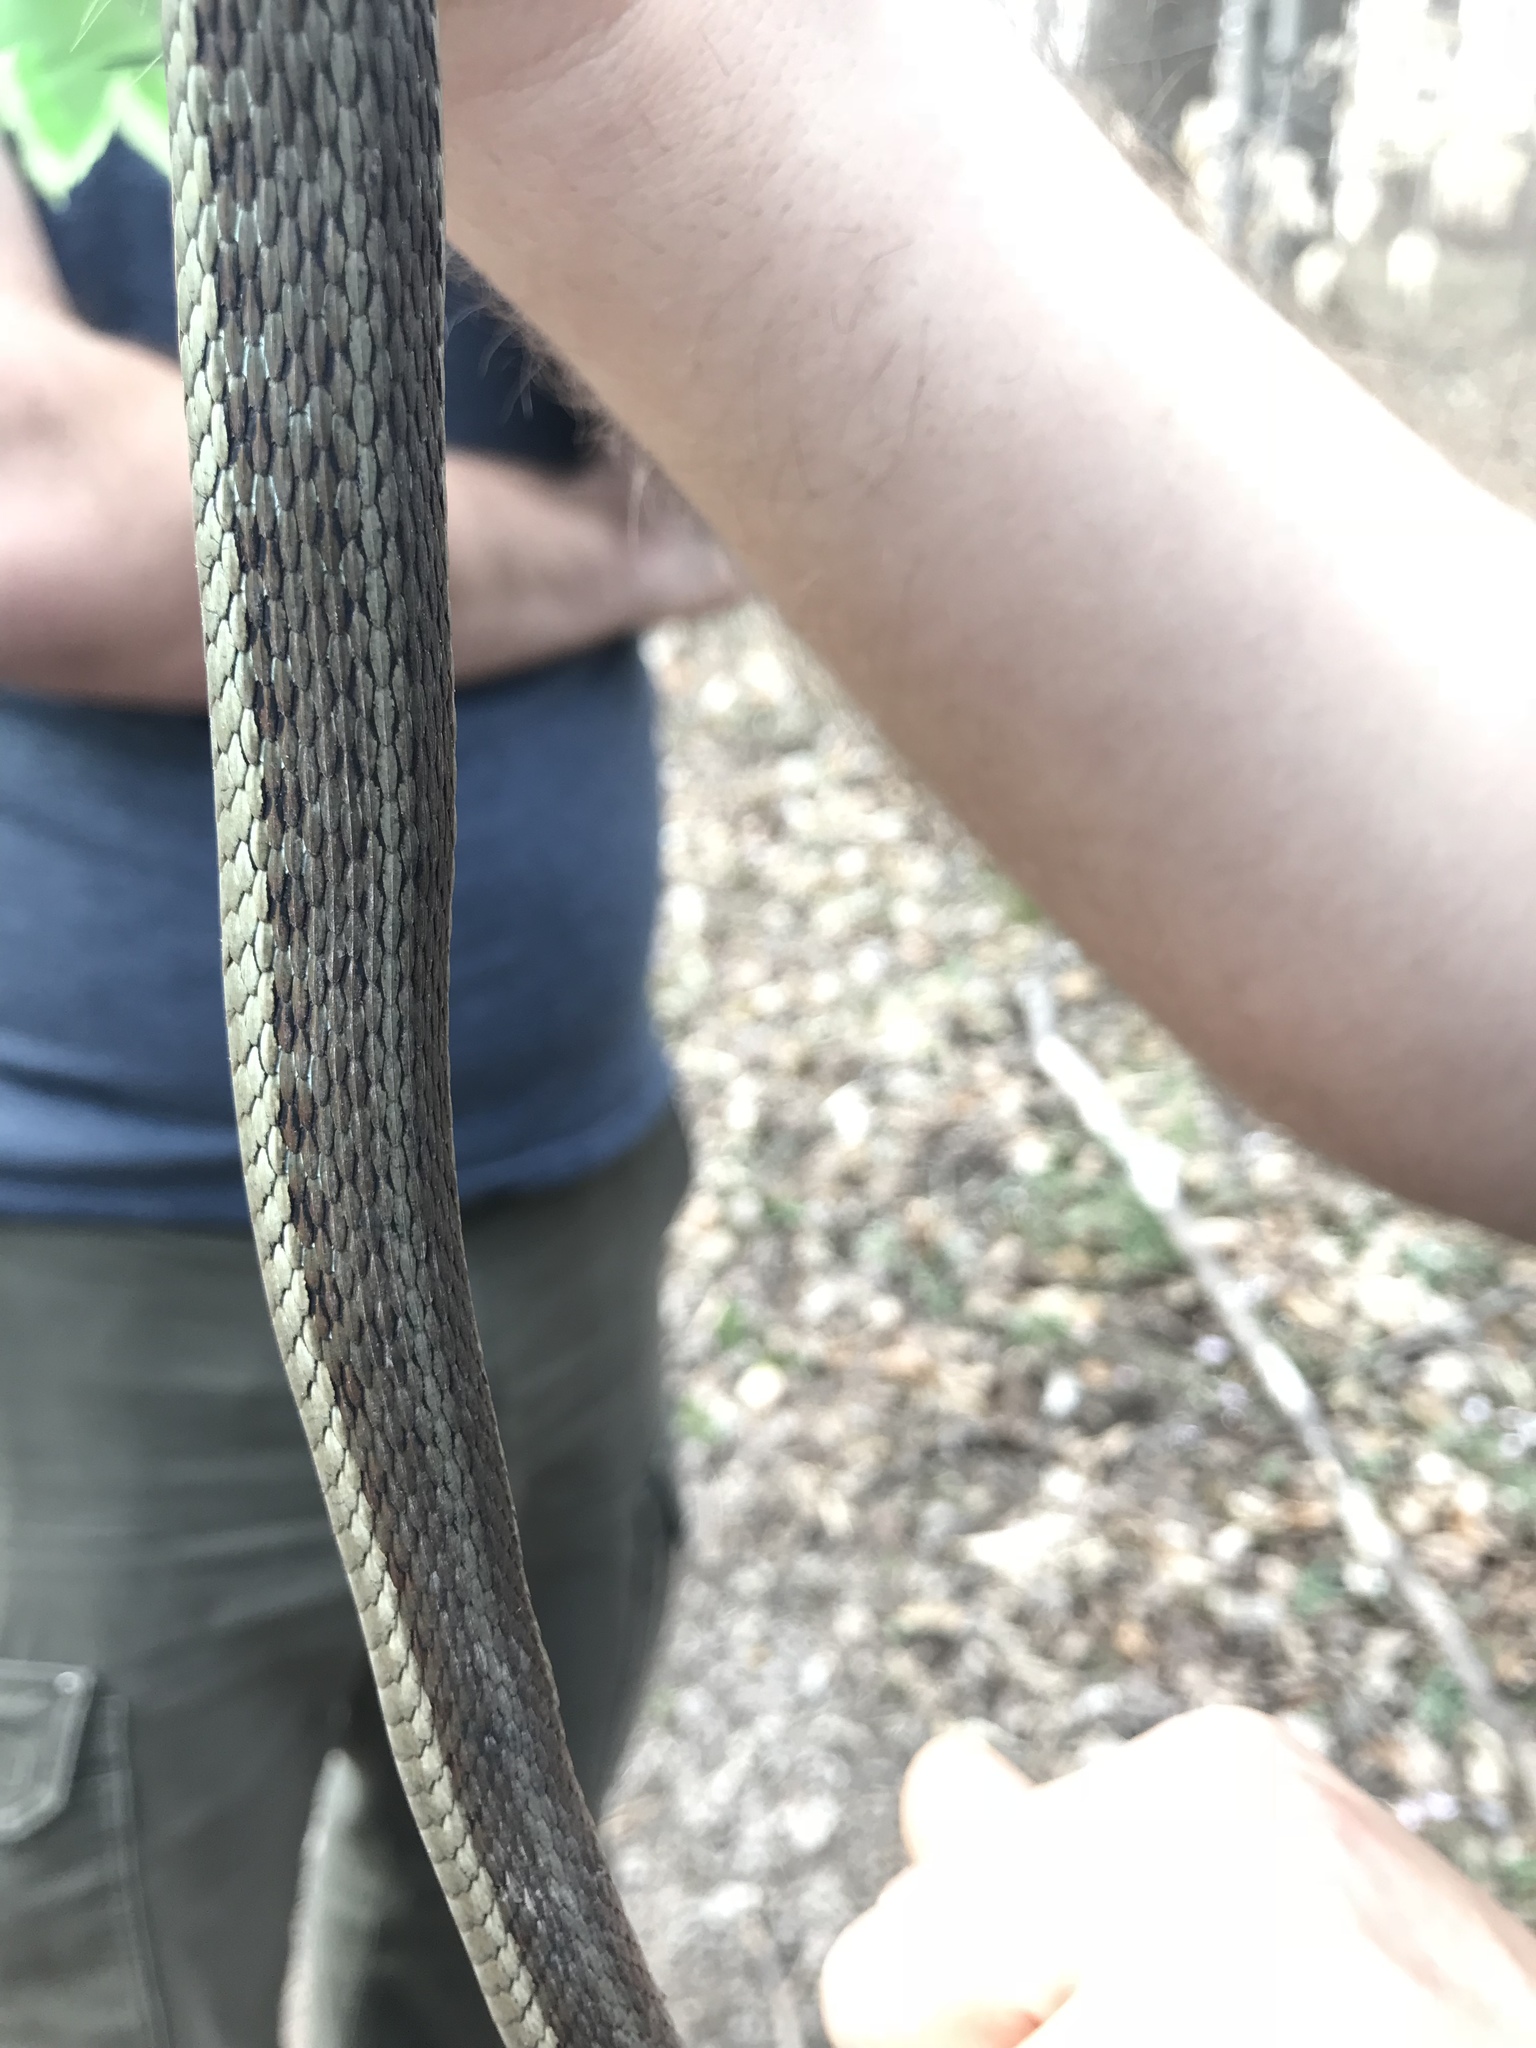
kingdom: Animalia
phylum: Chordata
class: Squamata
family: Colubridae
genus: Thamnophis
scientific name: Thamnophis sirtalis
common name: Common garter snake
